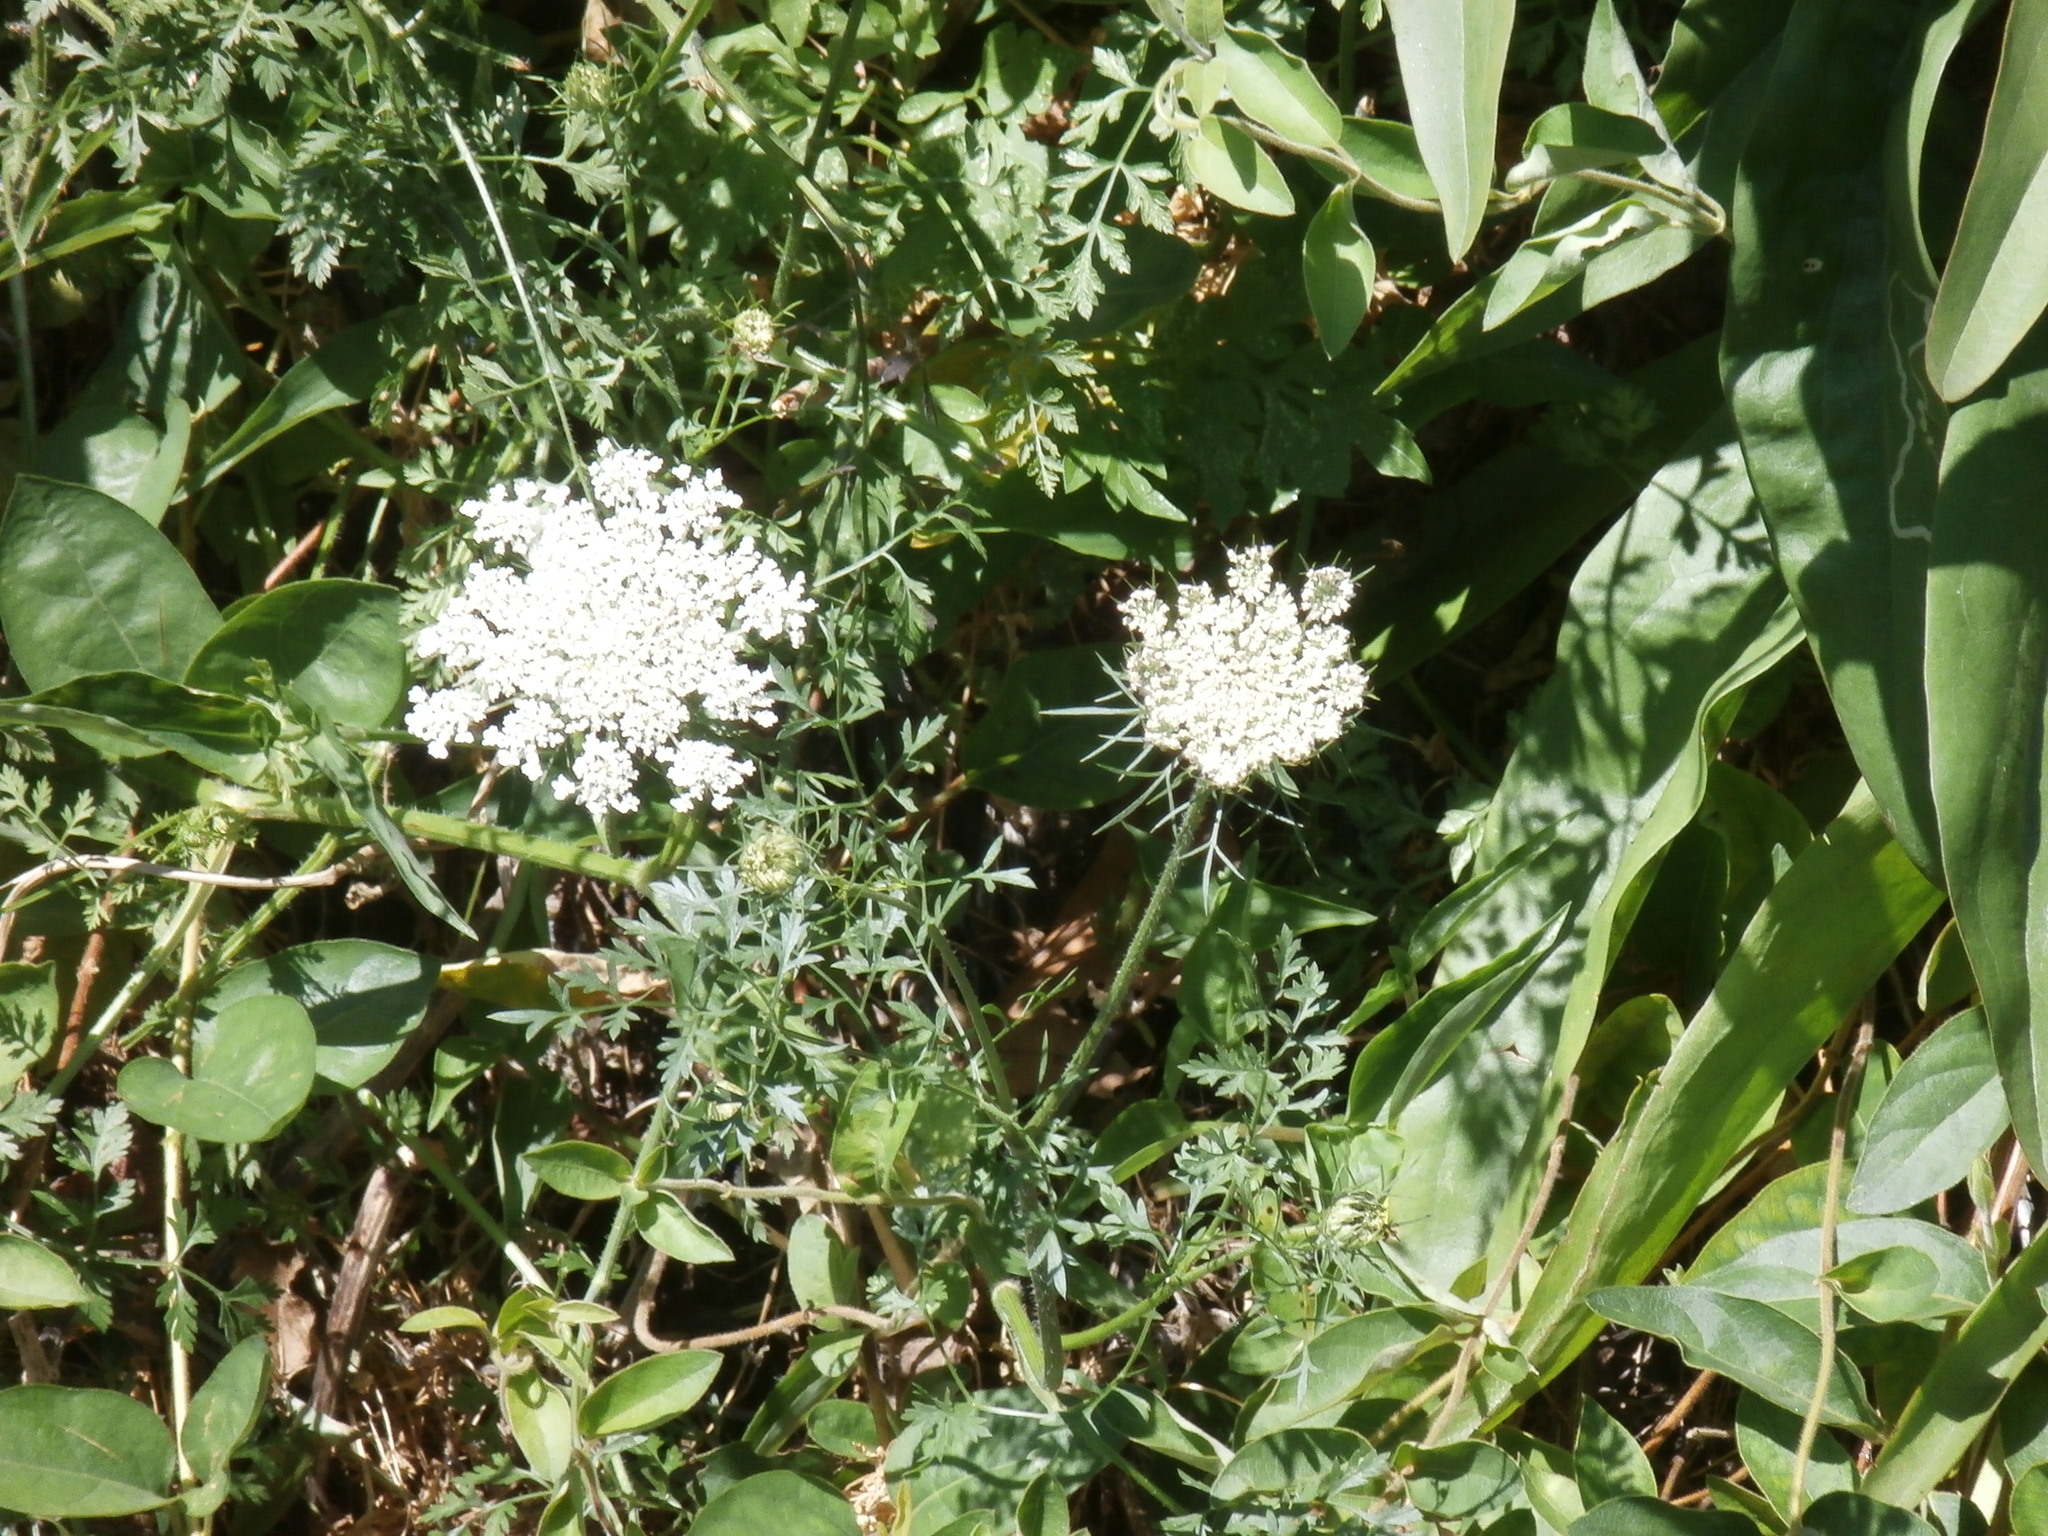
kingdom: Plantae
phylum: Tracheophyta
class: Magnoliopsida
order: Apiales
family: Apiaceae
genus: Daucus
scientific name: Daucus carota
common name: Wild carrot
